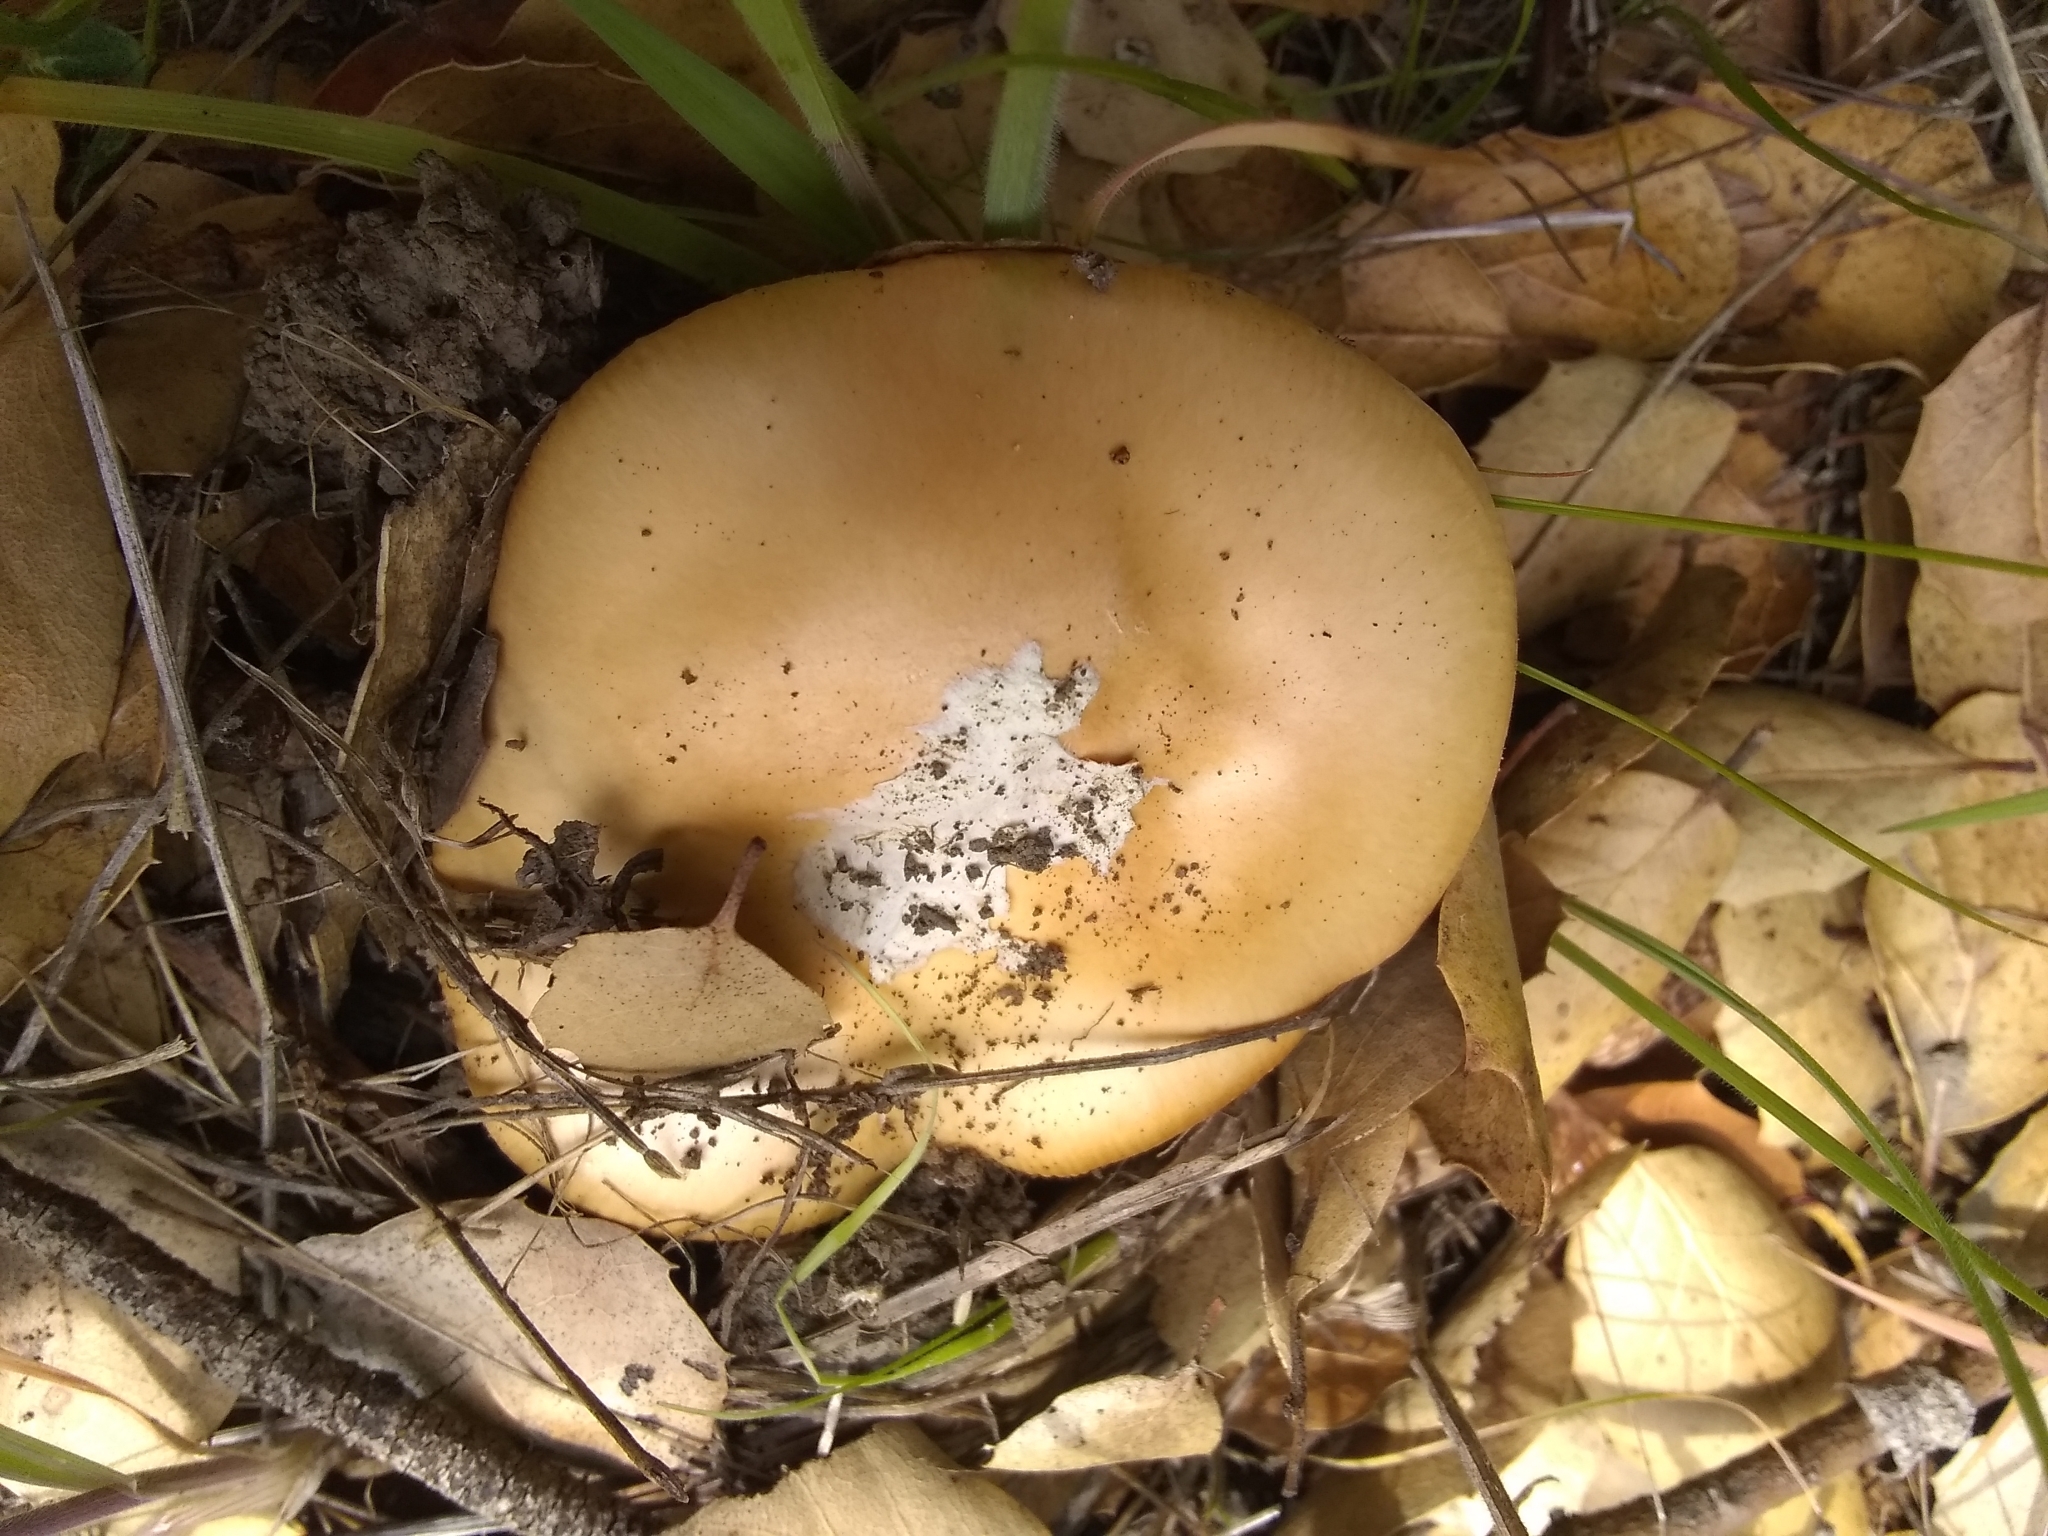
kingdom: Fungi
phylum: Basidiomycota
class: Agaricomycetes
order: Agaricales
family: Amanitaceae
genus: Amanita
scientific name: Amanita velosa
